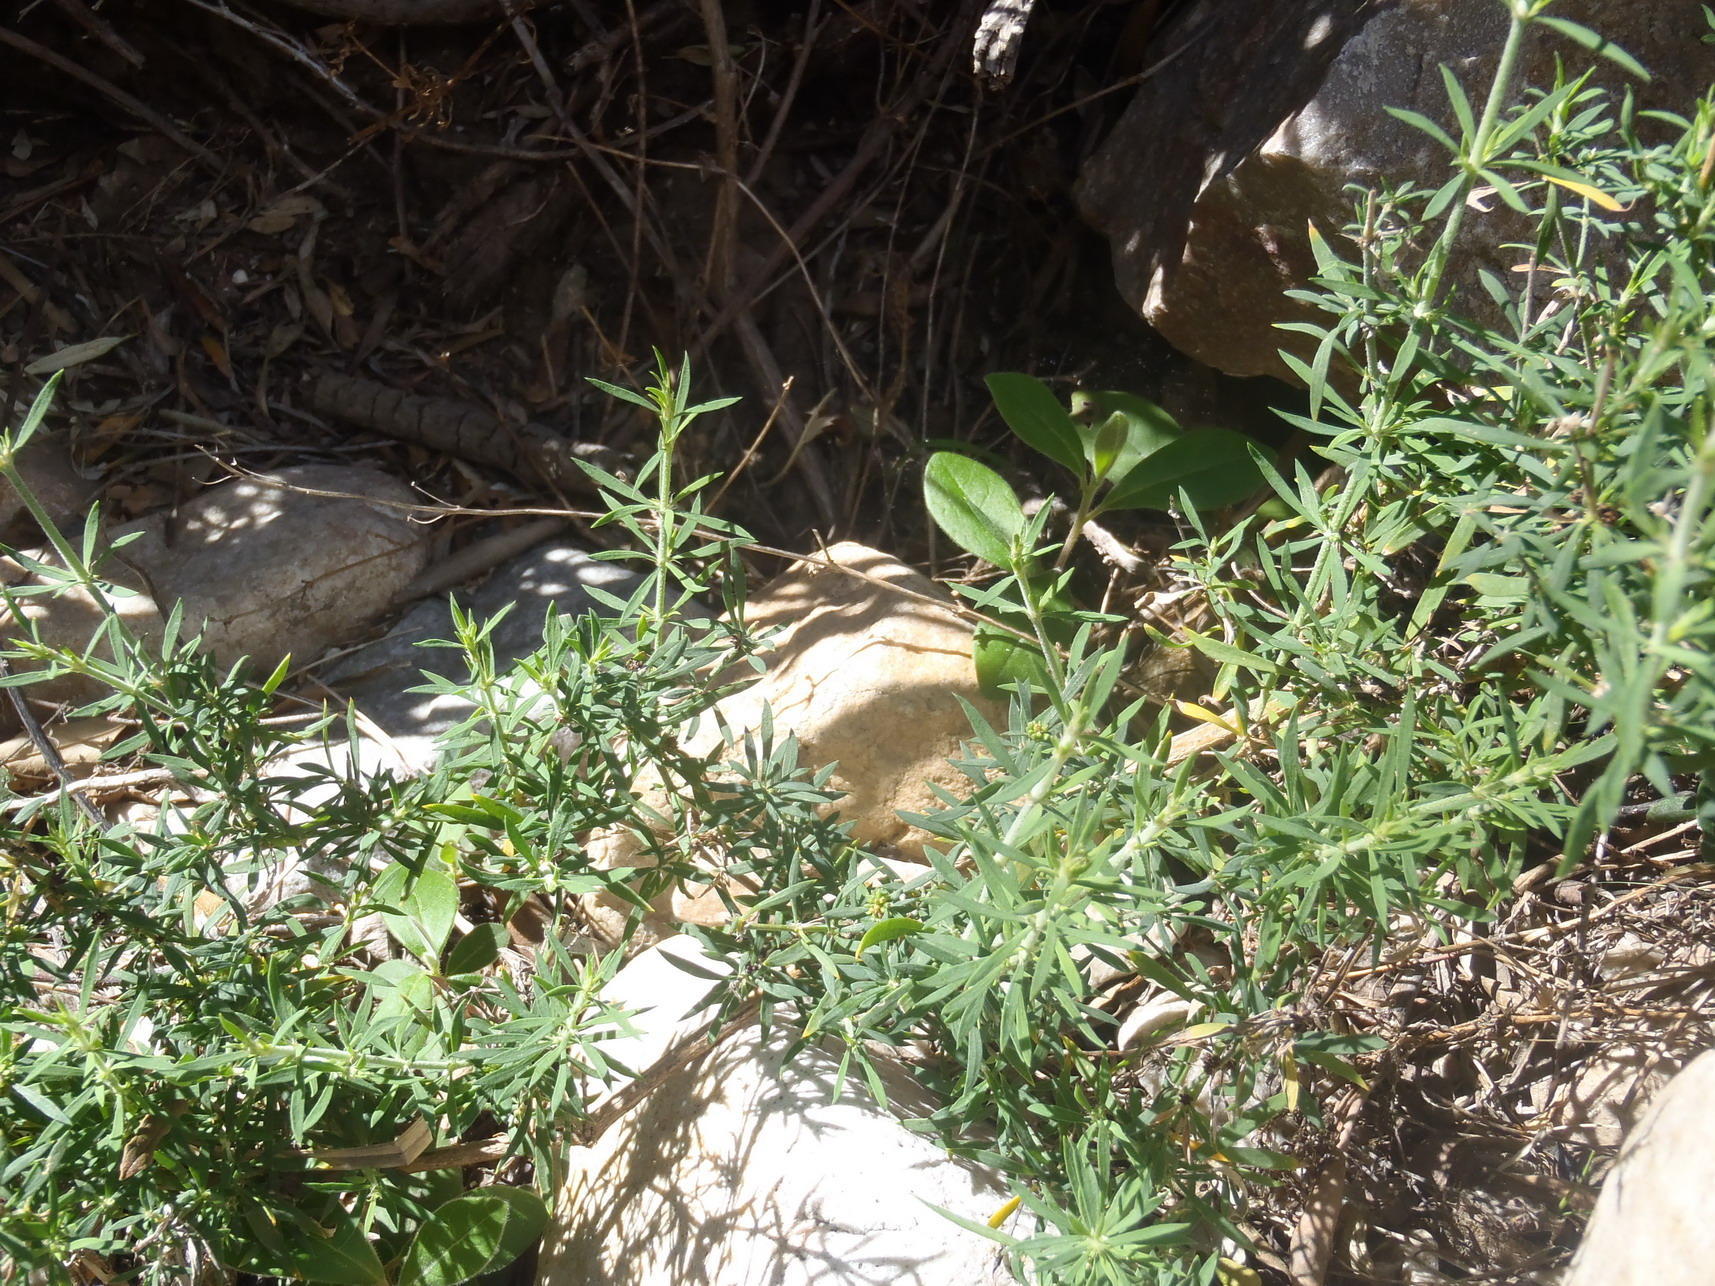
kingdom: Plantae
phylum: Tracheophyta
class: Magnoliopsida
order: Caryophyllales
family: Caryophyllaceae
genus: Pollichia
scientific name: Pollichia campestris
